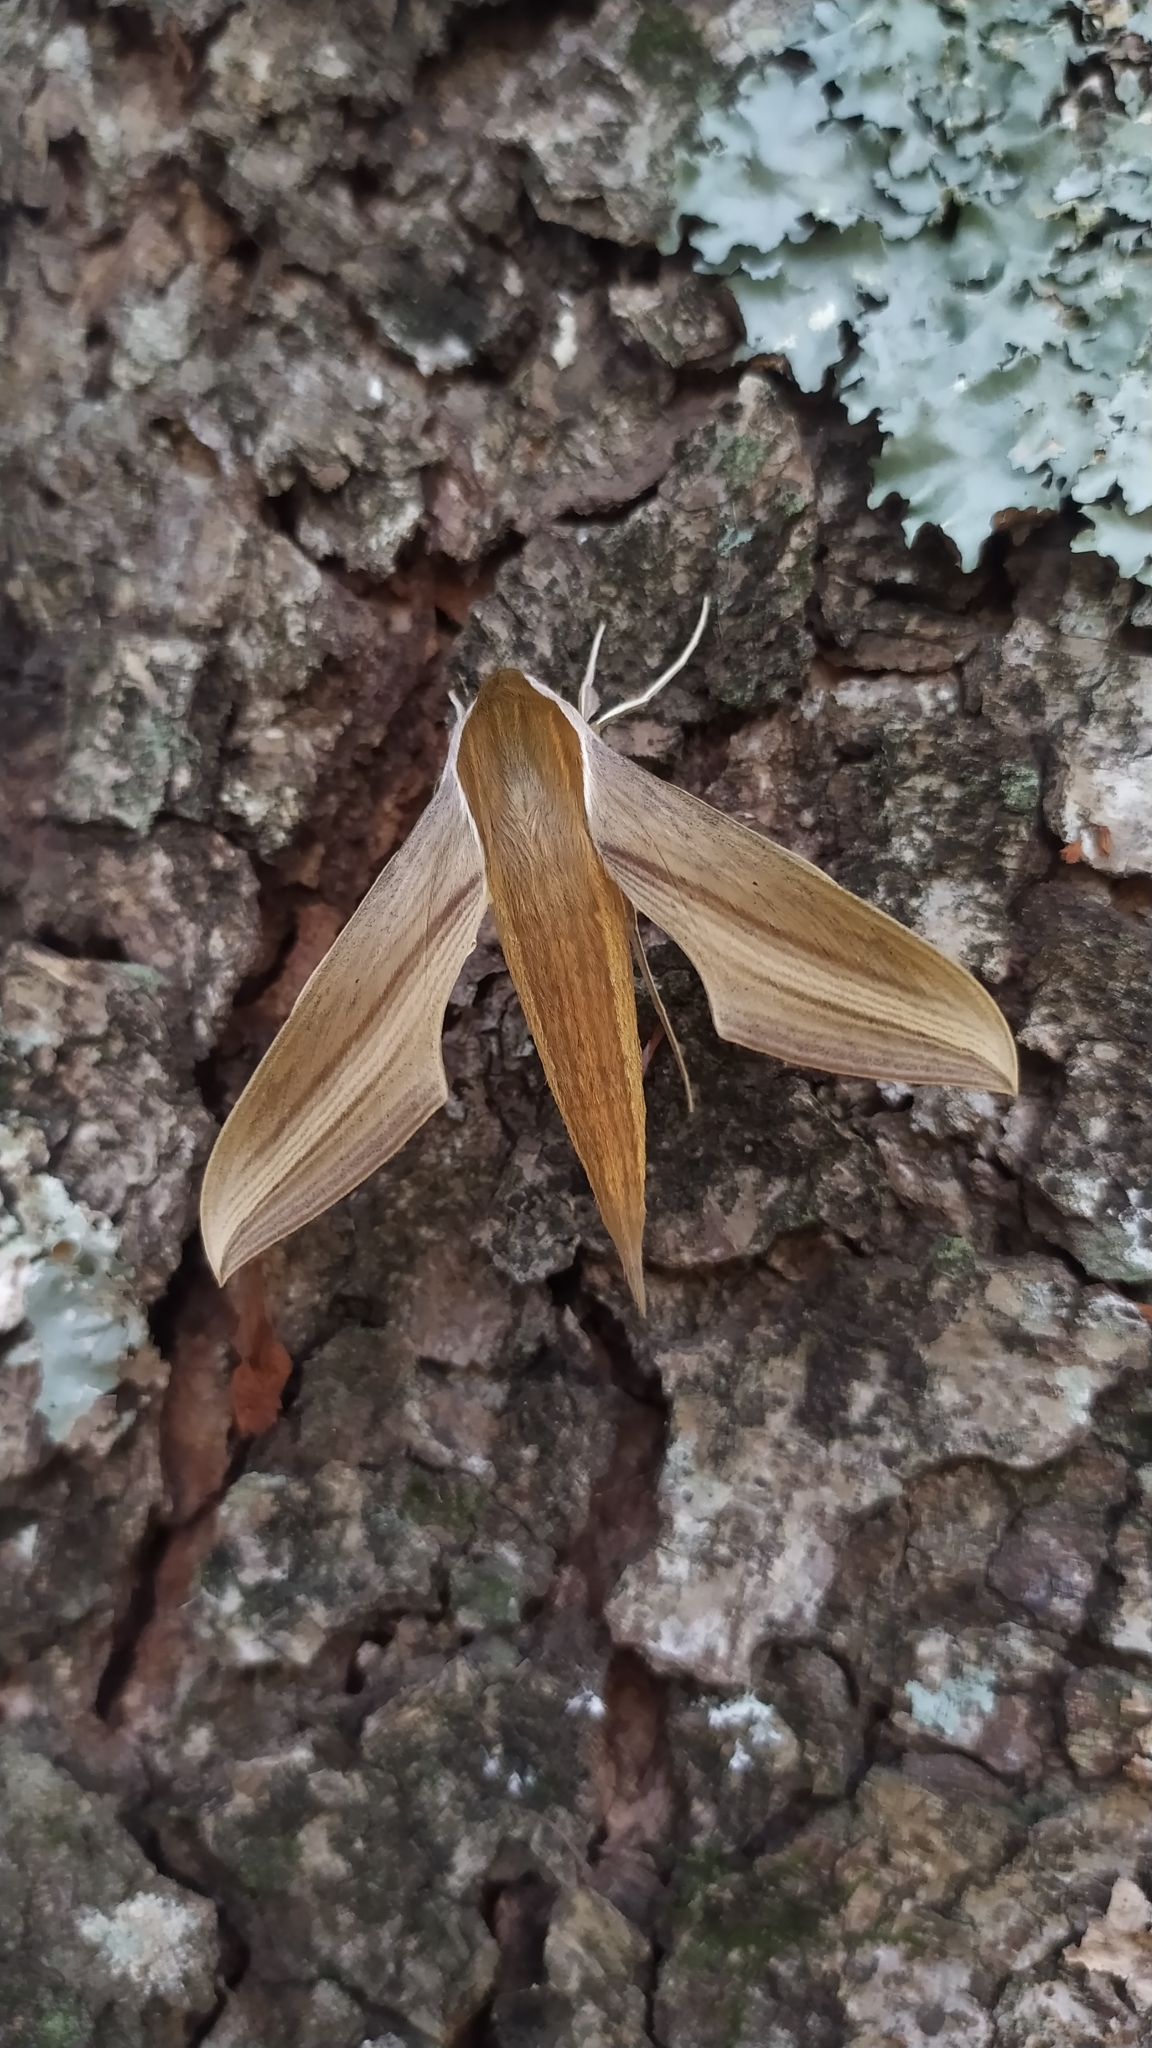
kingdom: Animalia
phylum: Arthropoda
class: Insecta
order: Lepidoptera
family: Sphingidae
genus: Xylophanes
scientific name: Xylophanes tersa
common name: Tersa sphinx
